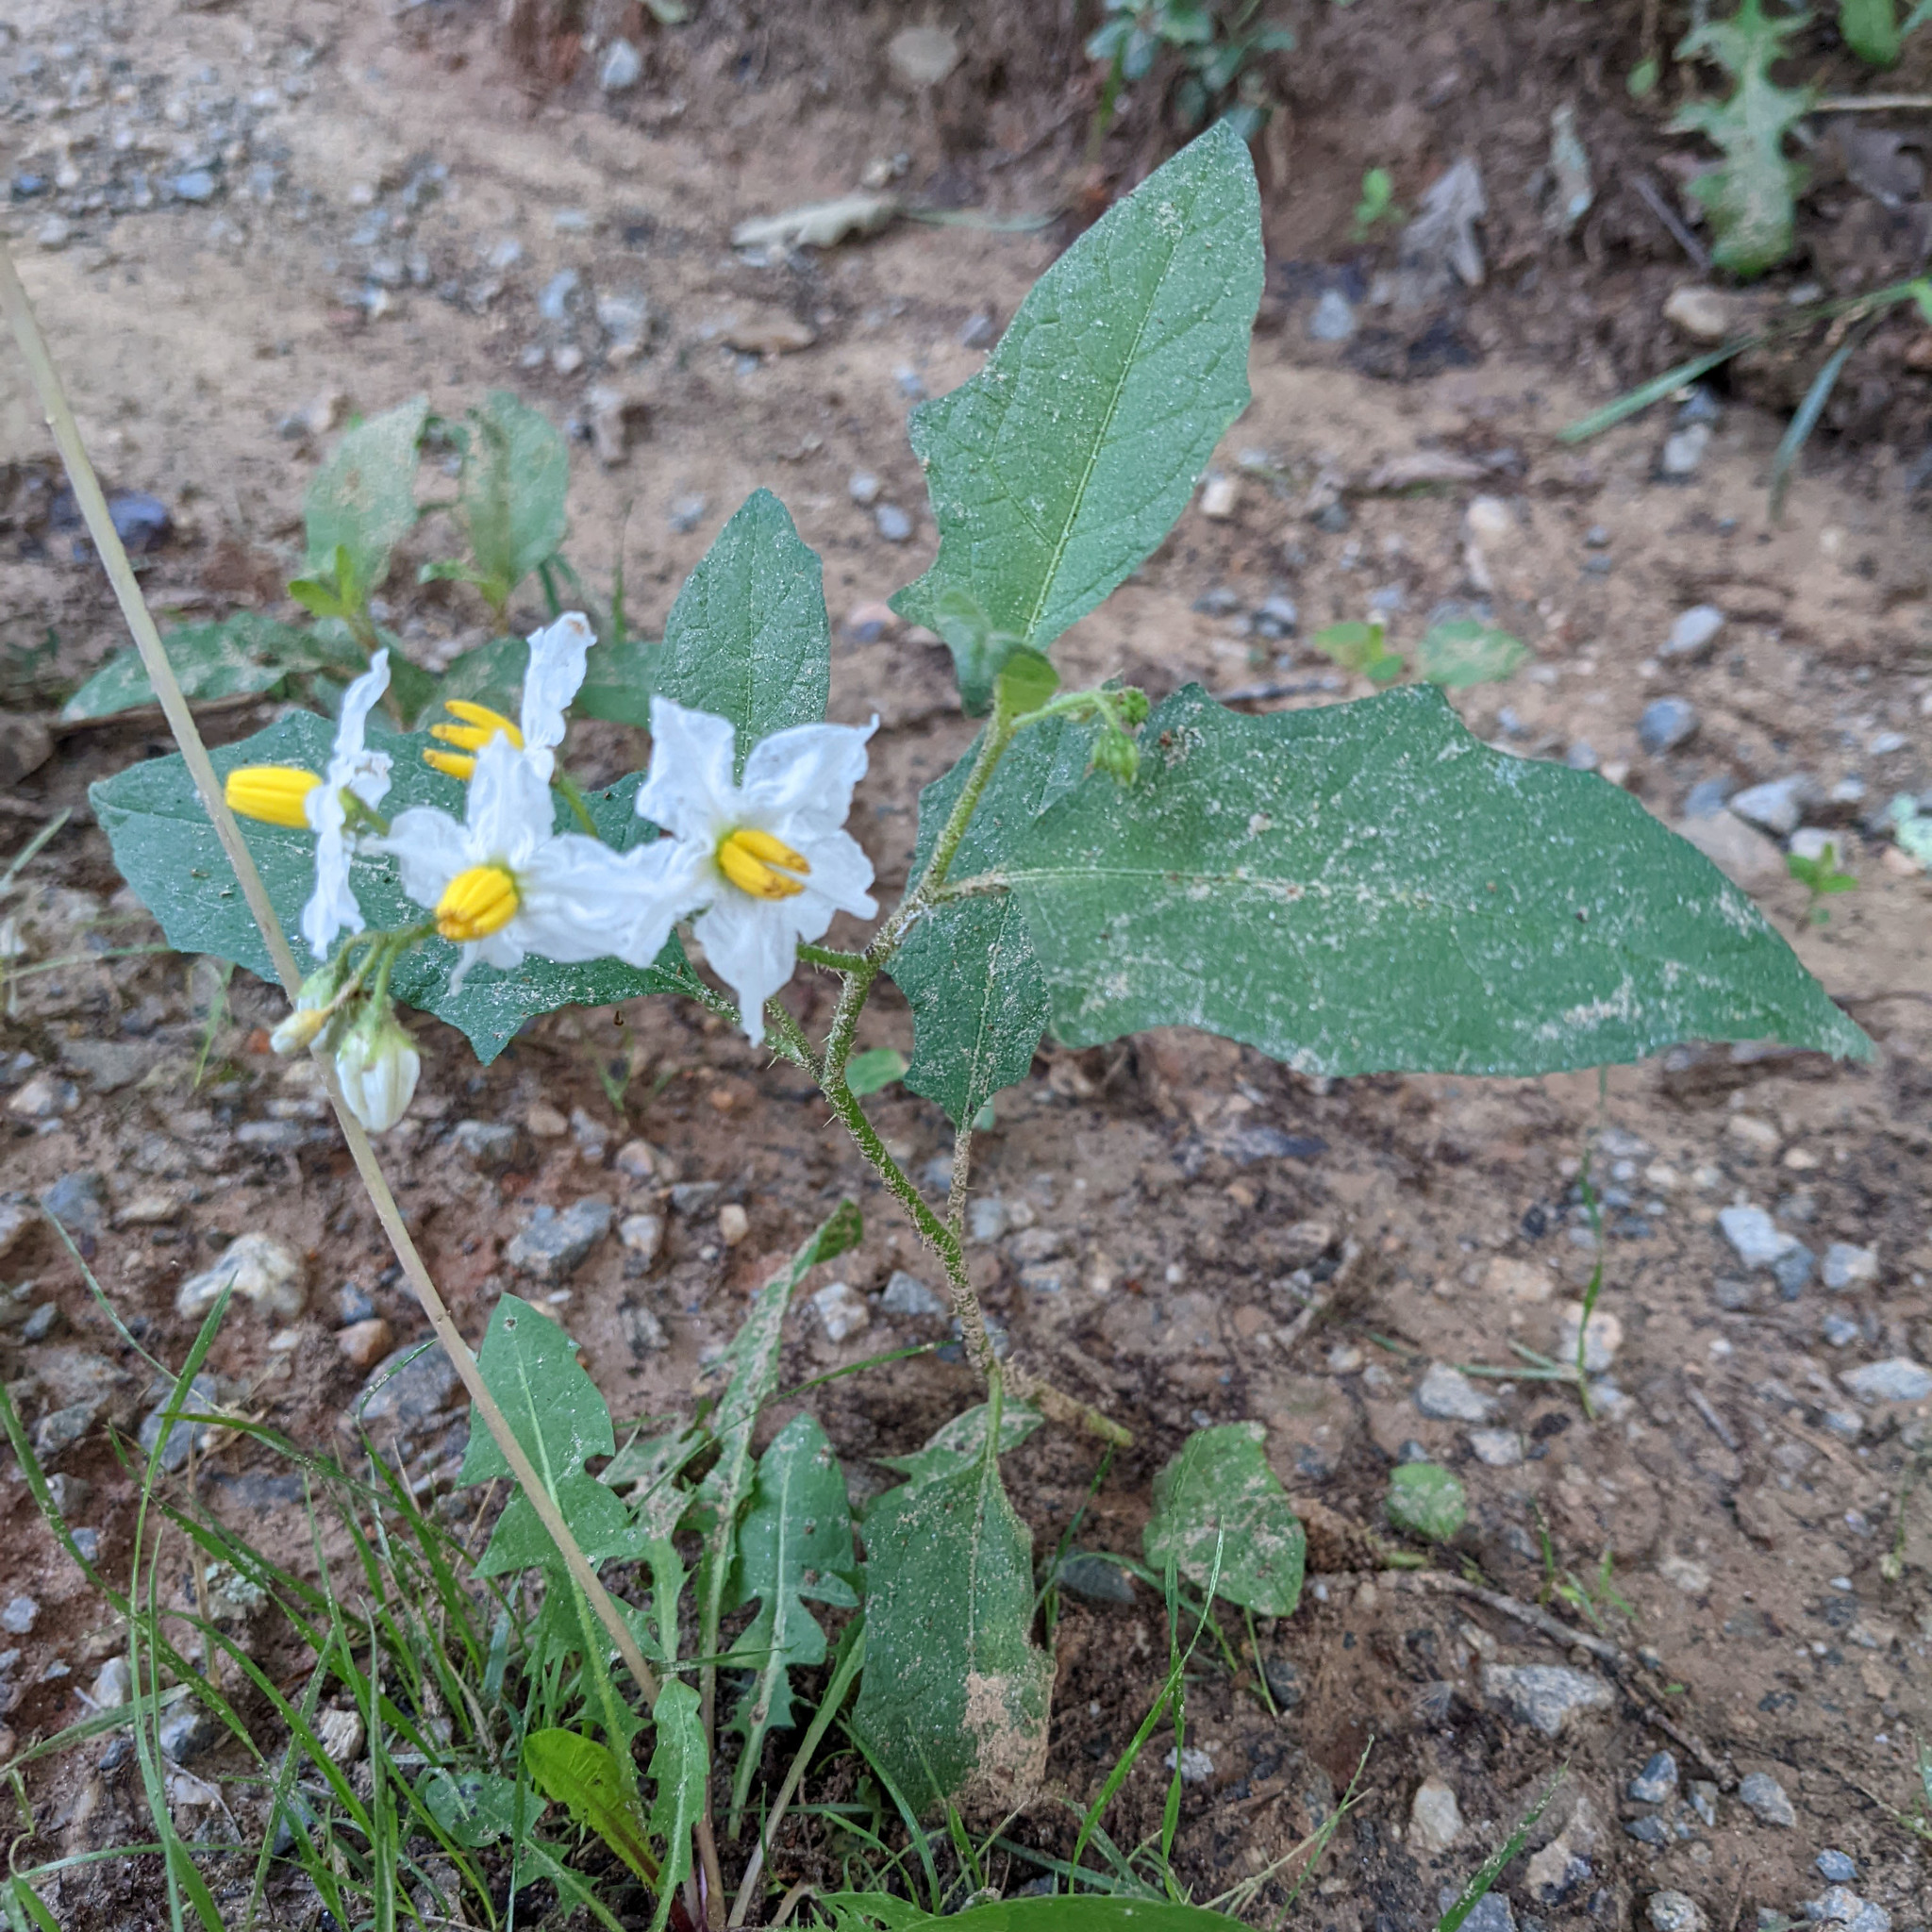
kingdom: Plantae
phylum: Tracheophyta
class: Magnoliopsida
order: Solanales
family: Solanaceae
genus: Solanum
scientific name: Solanum carolinense
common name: Horse-nettle
